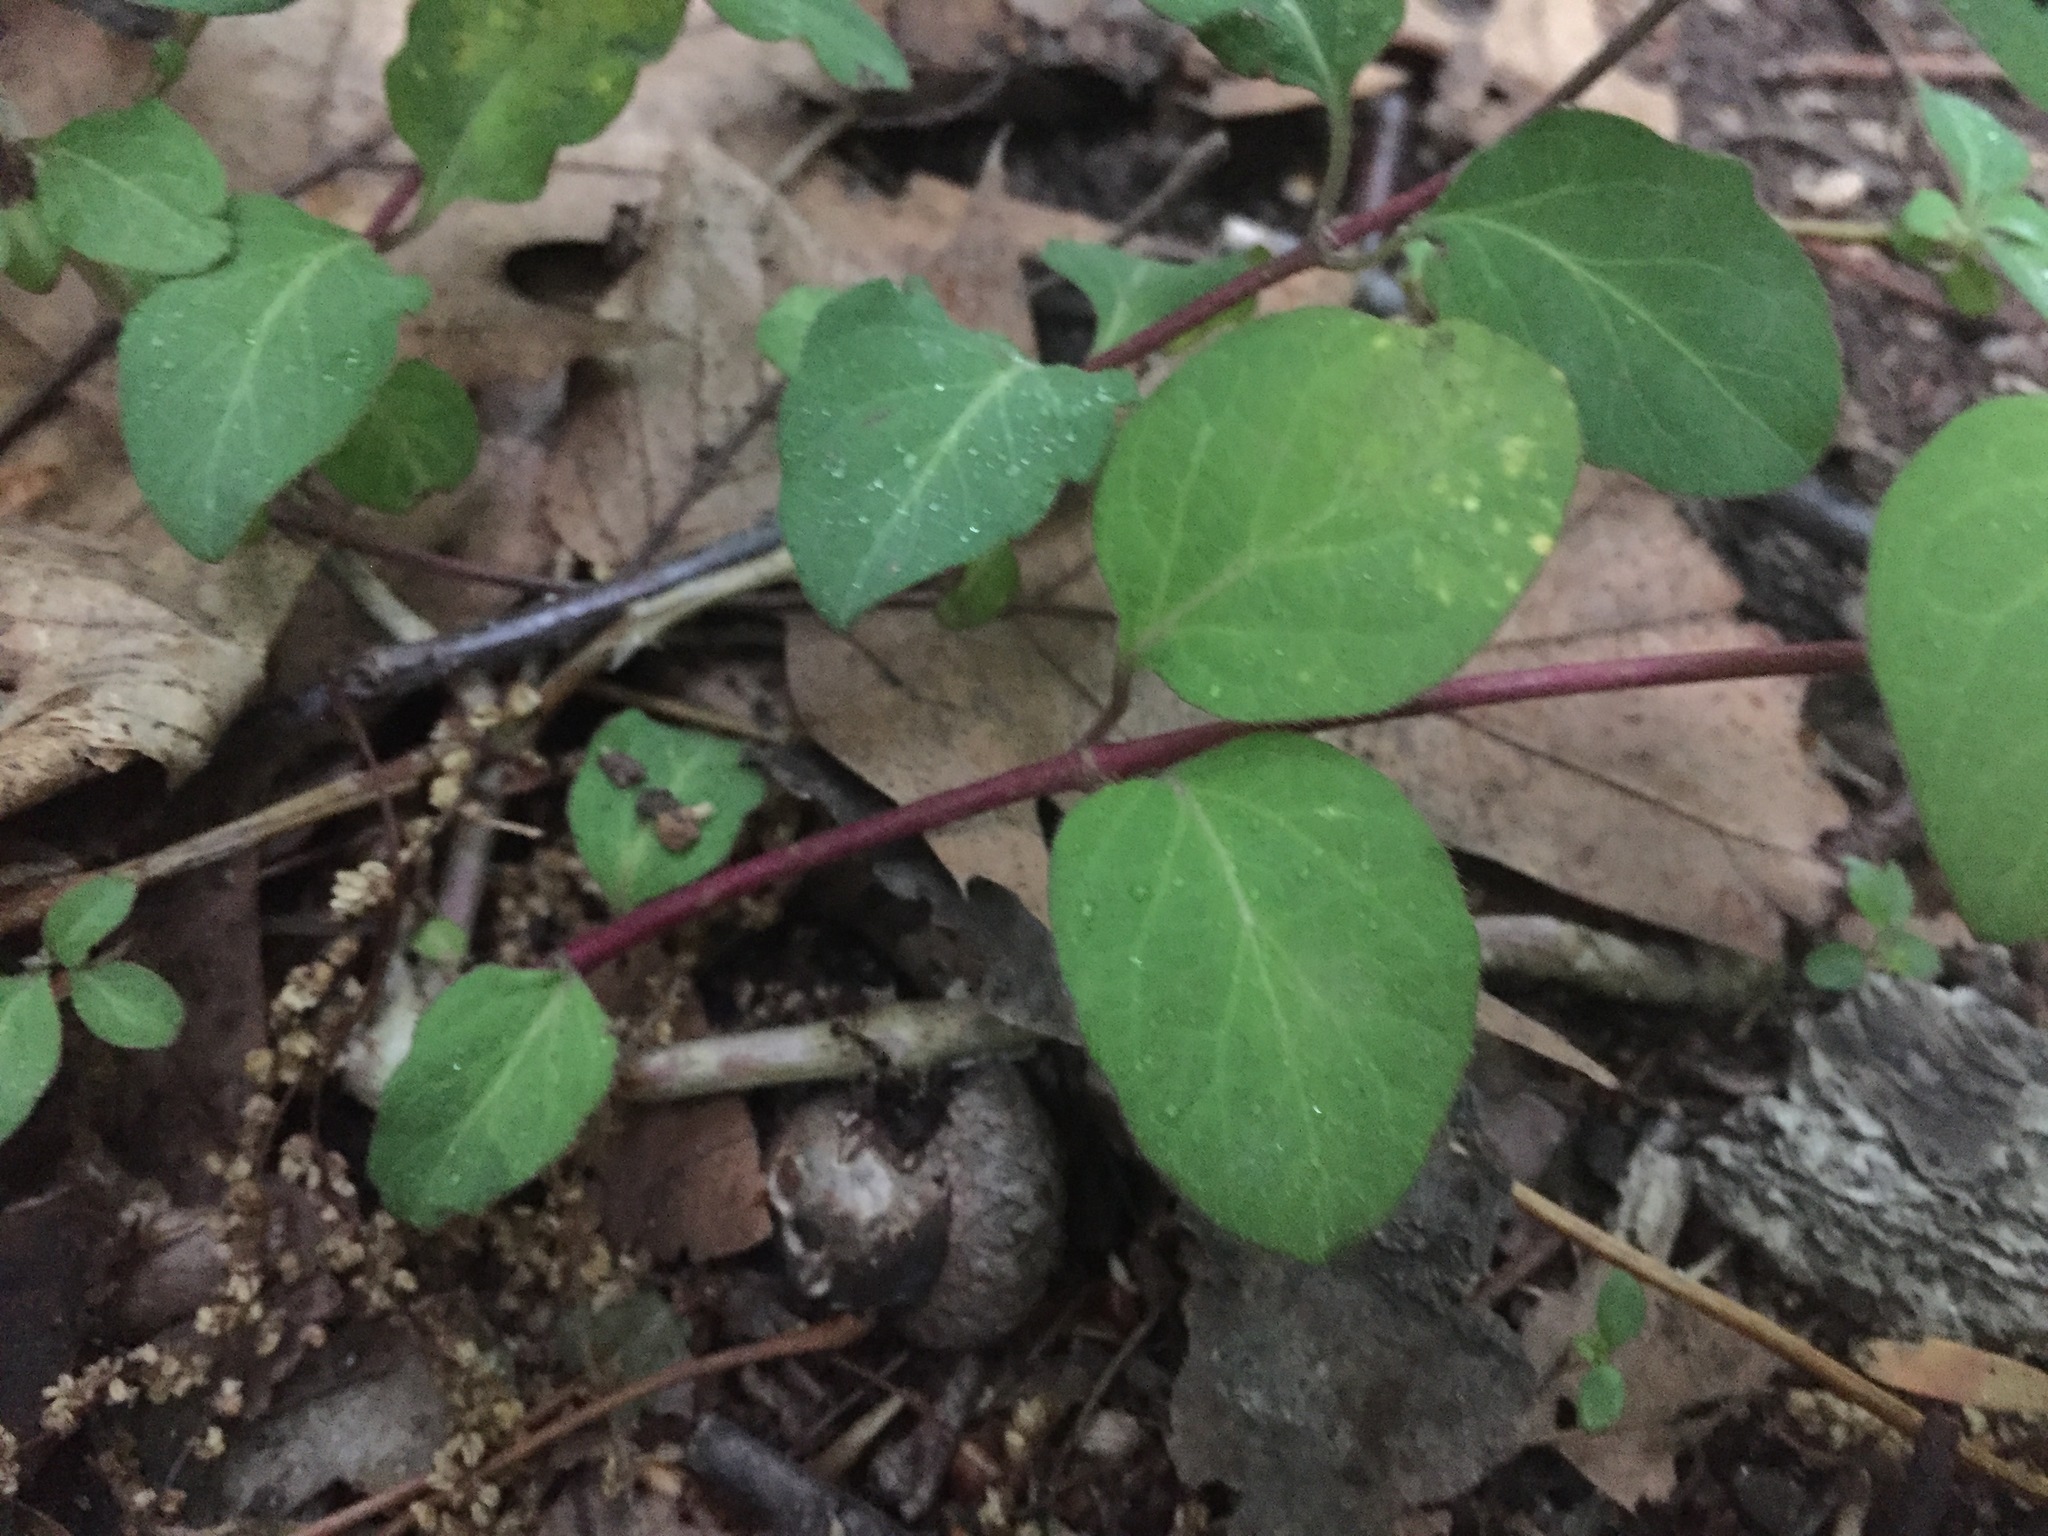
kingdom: Plantae
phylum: Tracheophyta
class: Magnoliopsida
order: Dipsacales
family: Caprifoliaceae
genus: Lonicera
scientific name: Lonicera japonica
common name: Japanese honeysuckle
